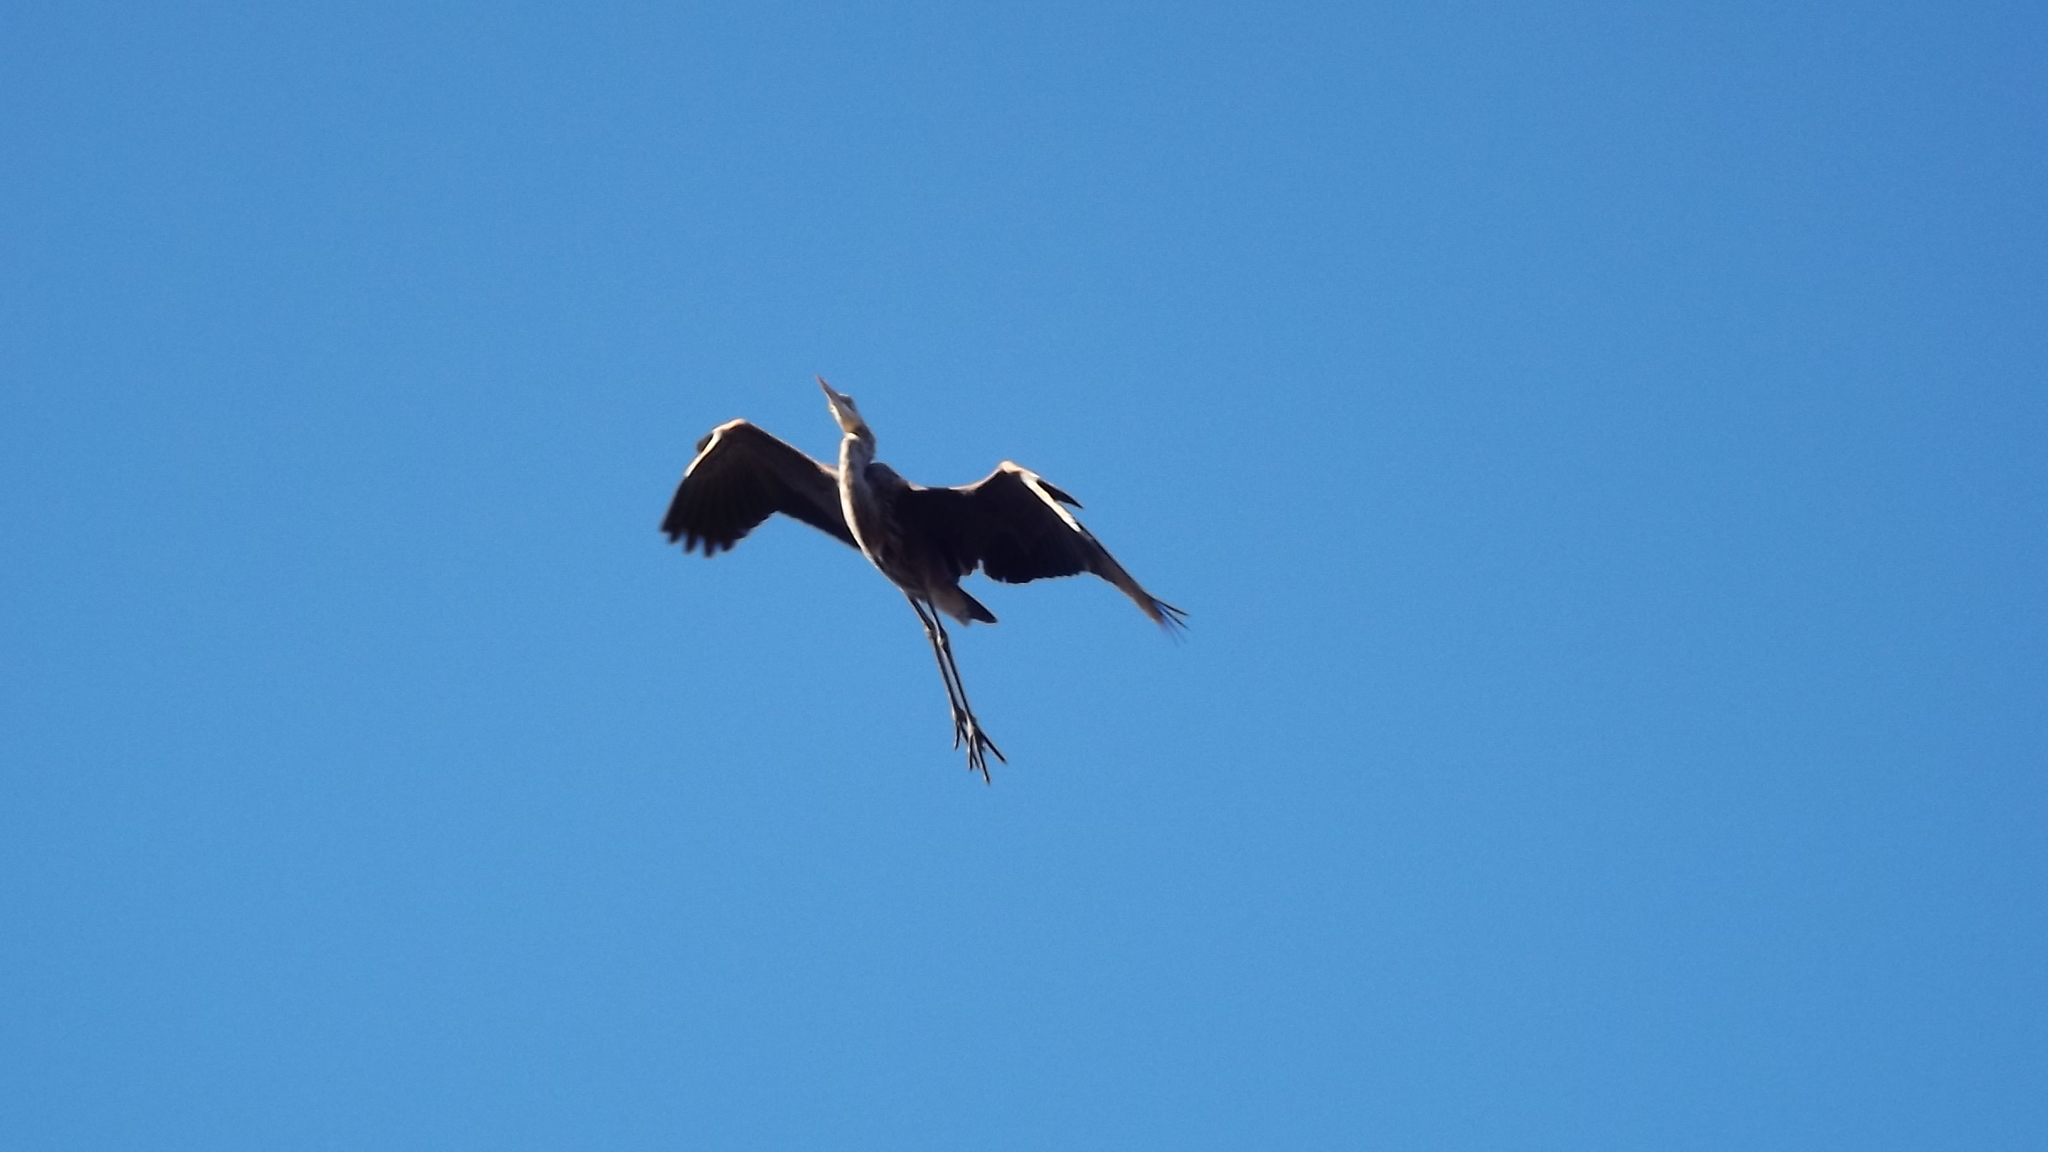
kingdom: Animalia
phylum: Chordata
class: Aves
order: Pelecaniformes
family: Ardeidae
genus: Ardea
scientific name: Ardea herodias
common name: Great blue heron
